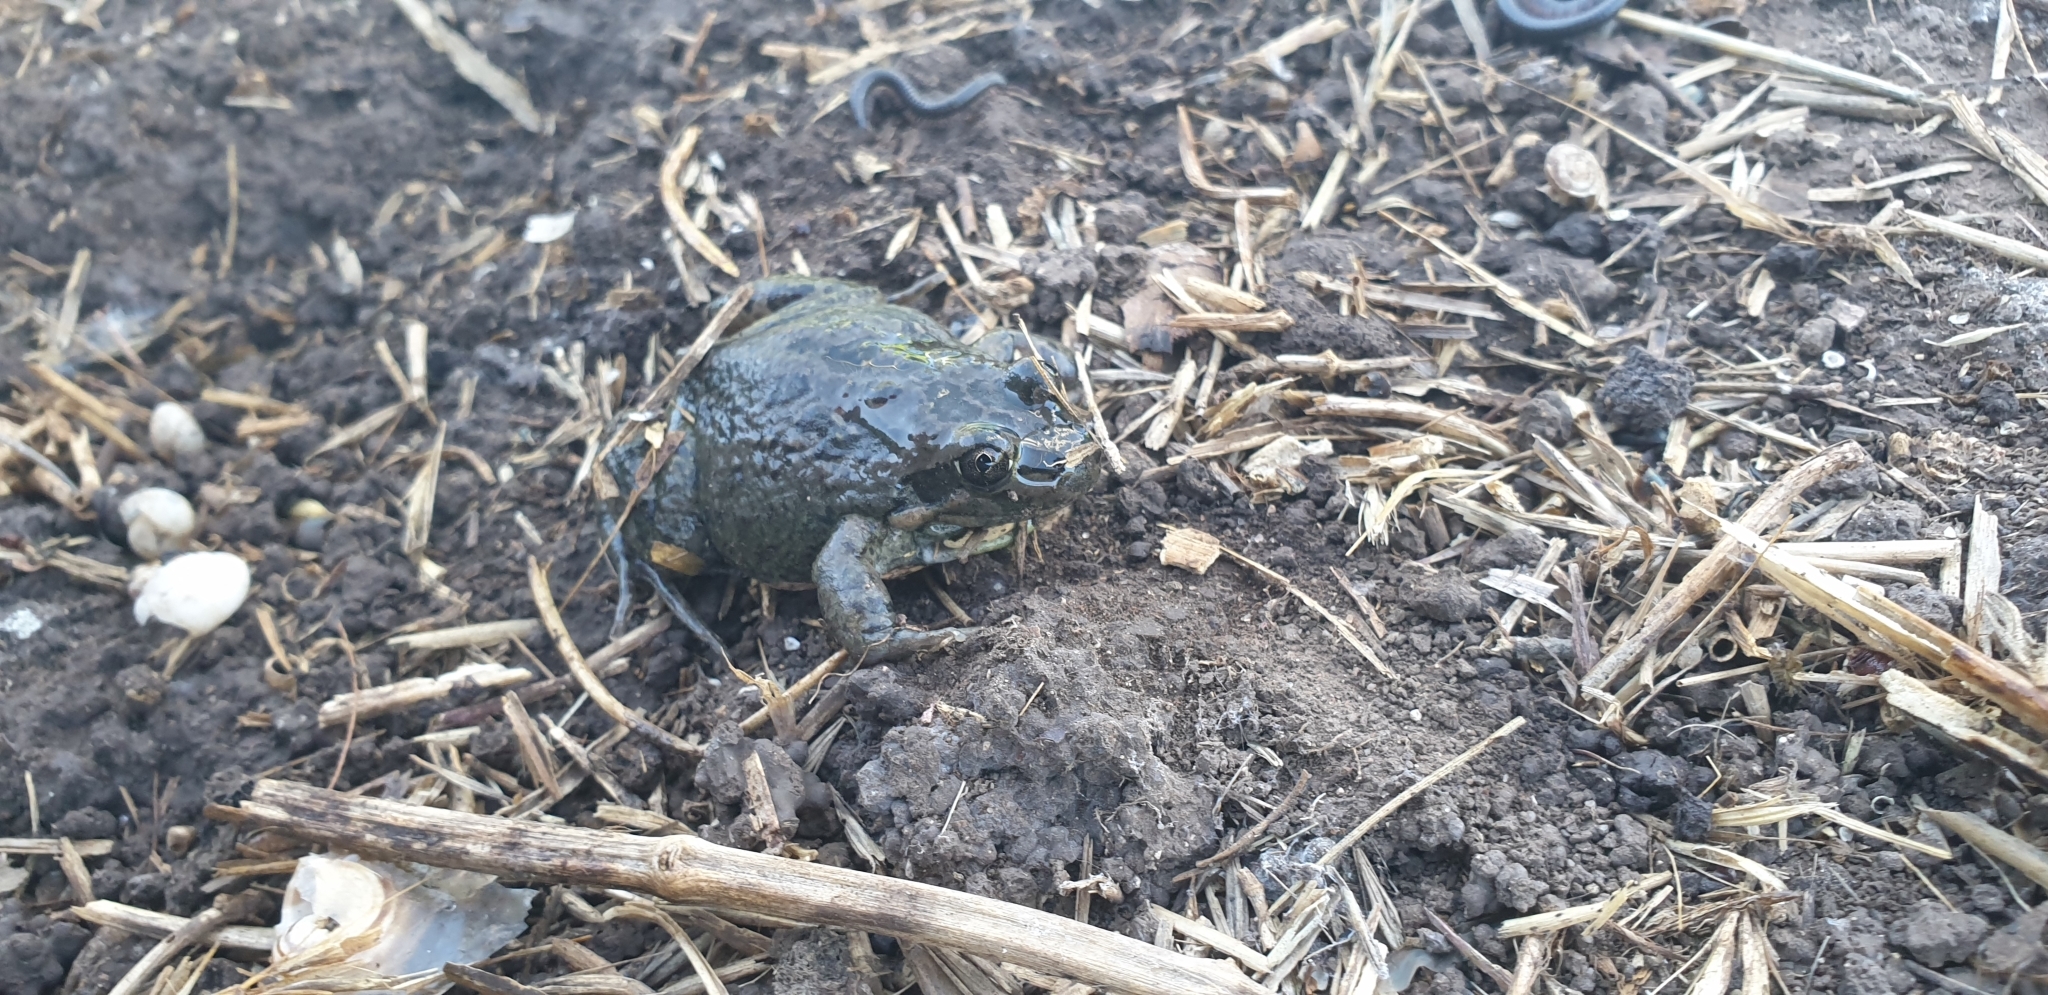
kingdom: Animalia
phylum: Chordata
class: Amphibia
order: Anura
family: Limnodynastidae
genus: Limnodynastes
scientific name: Limnodynastes tasmaniensis
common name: Spotted marsh frog
